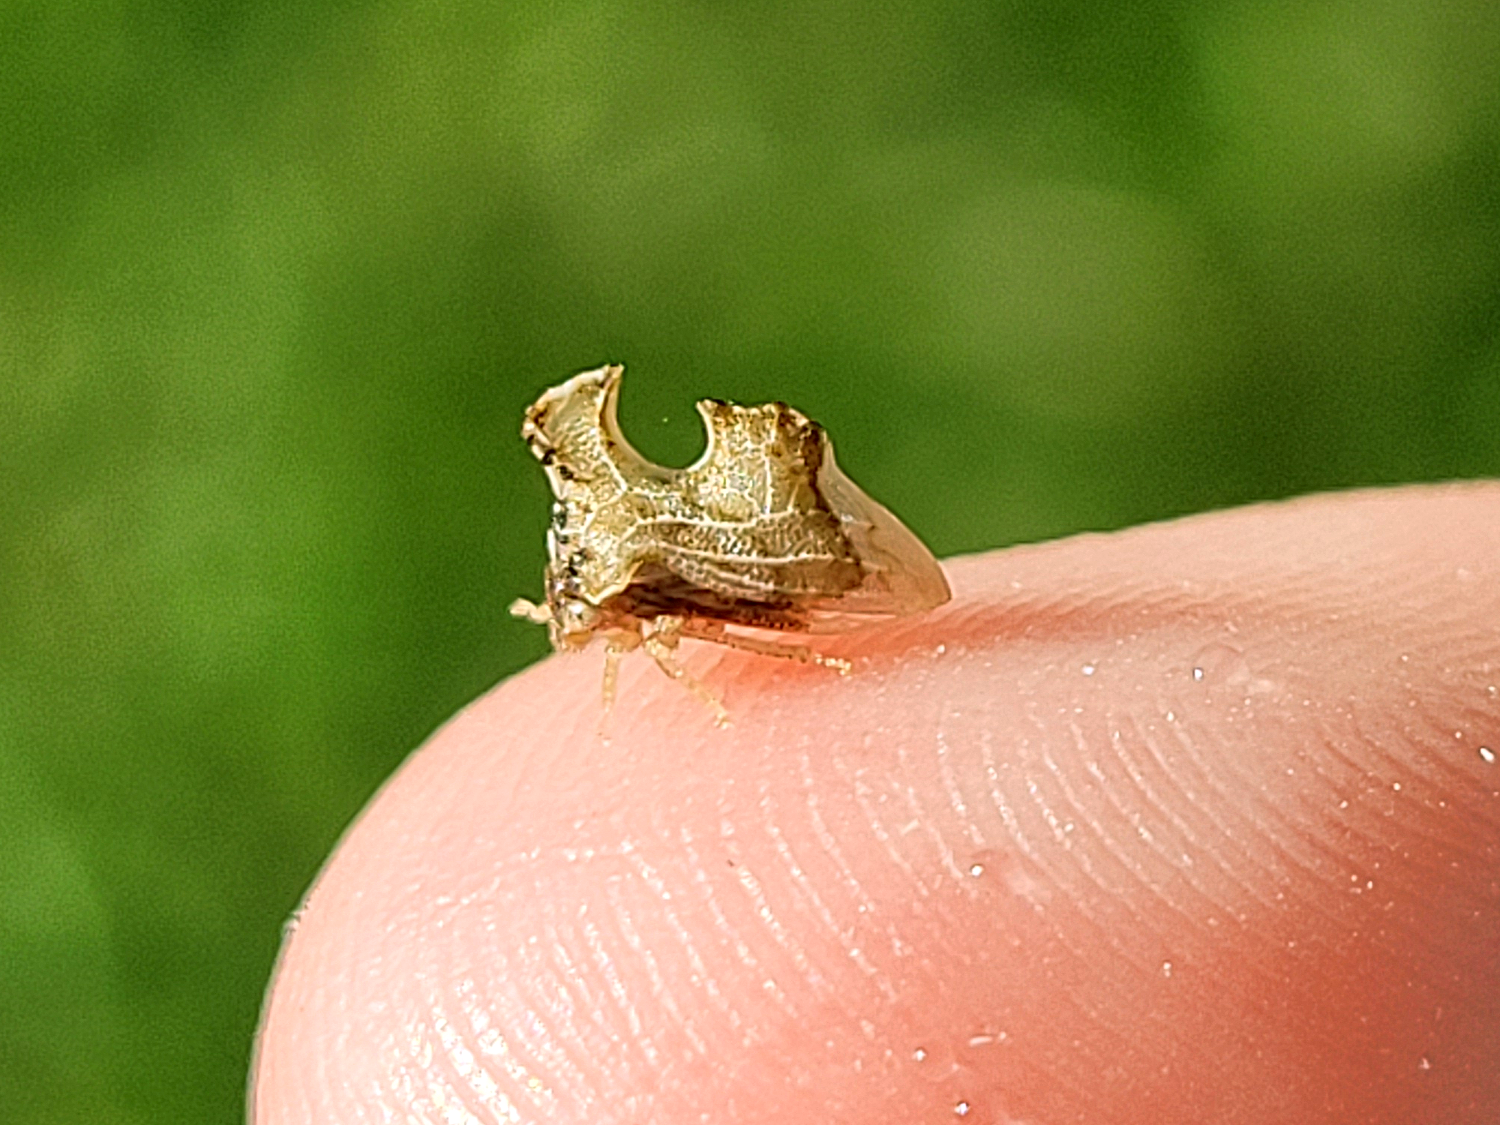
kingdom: Animalia
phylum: Arthropoda
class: Insecta
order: Hemiptera
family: Membracidae
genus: Entylia
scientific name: Entylia carinata
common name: Keeled treehopper
